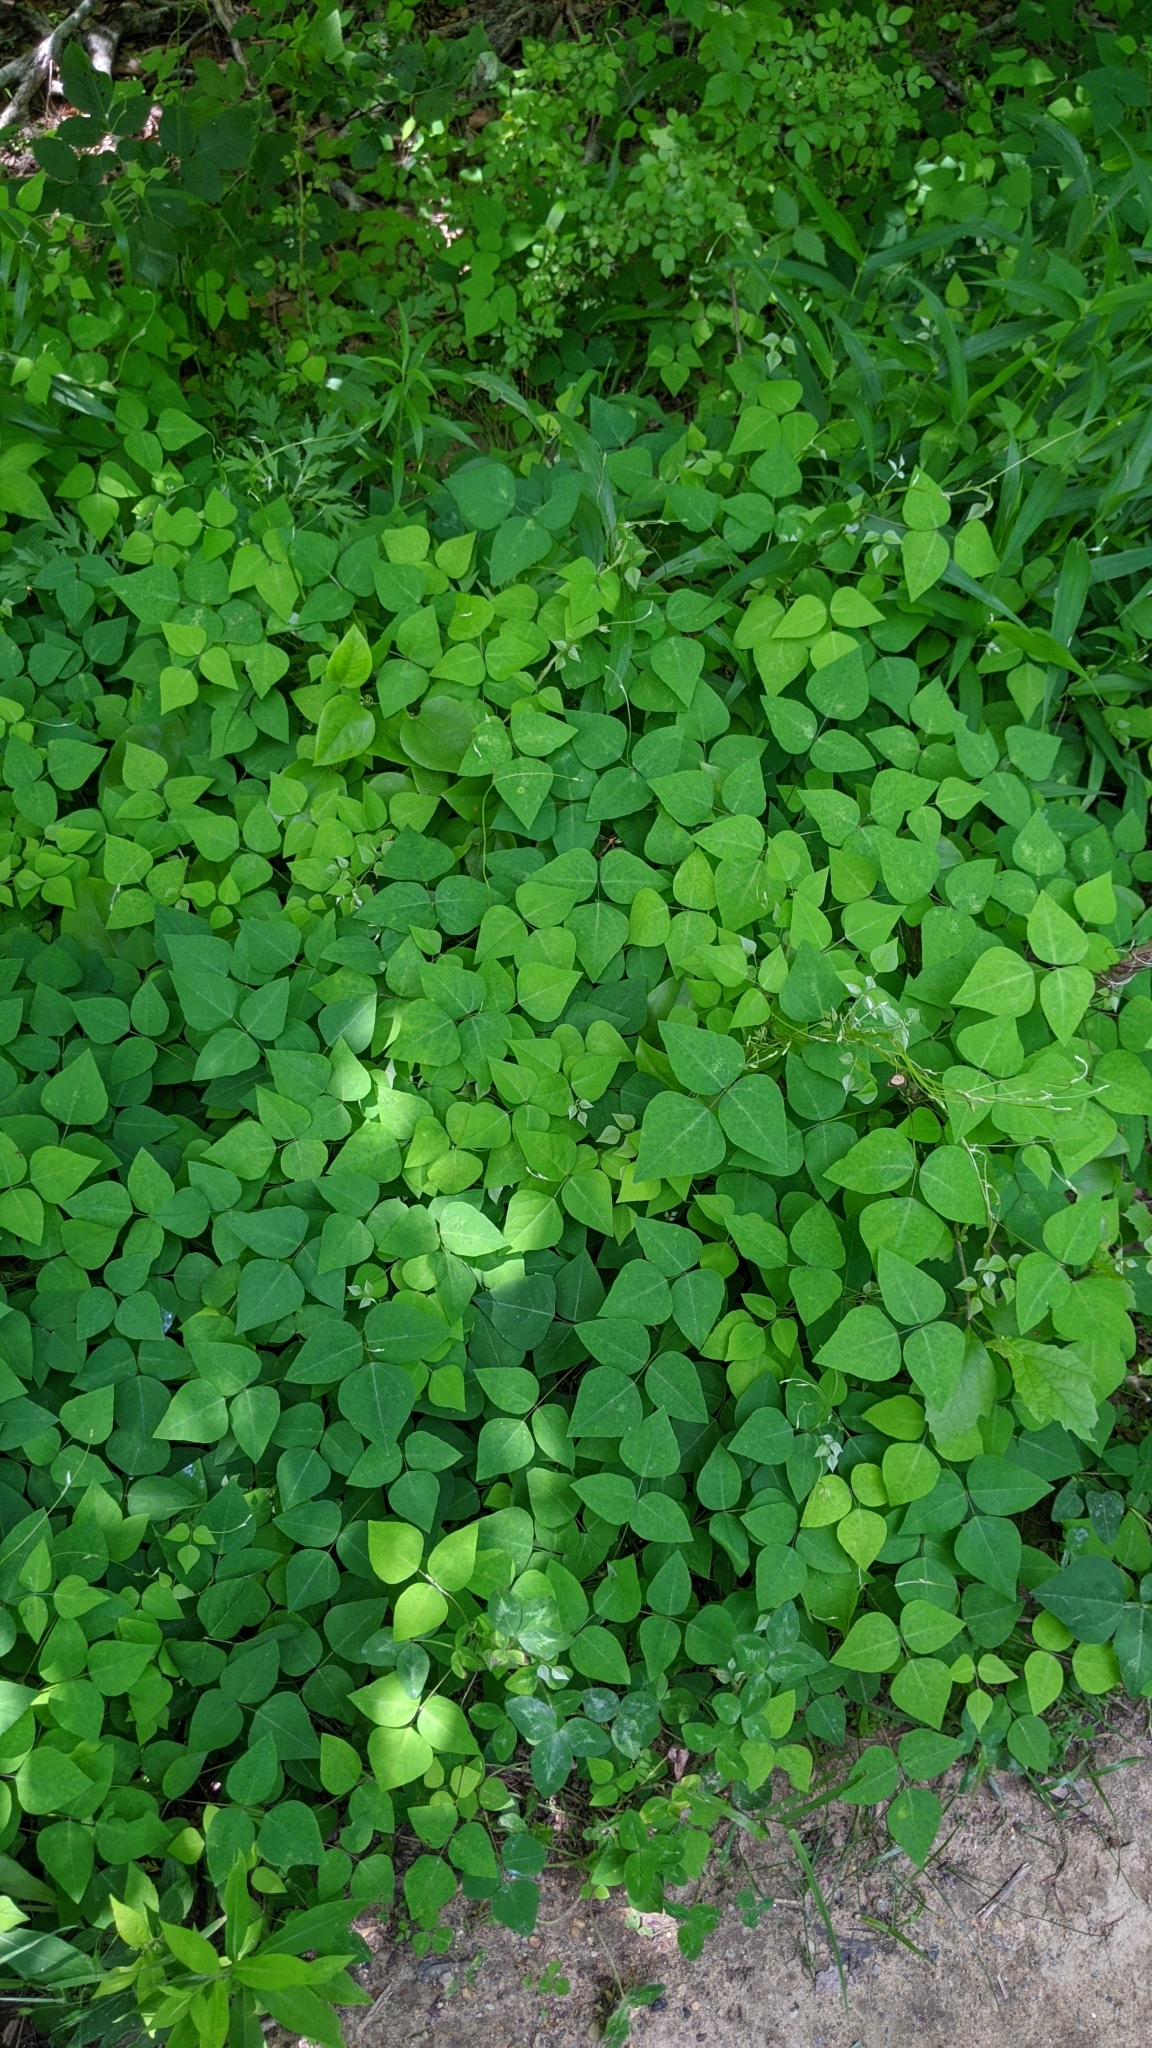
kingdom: Plantae
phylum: Tracheophyta
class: Magnoliopsida
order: Fabales
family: Fabaceae
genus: Amphicarpaea
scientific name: Amphicarpaea bracteata
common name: American hog peanut
